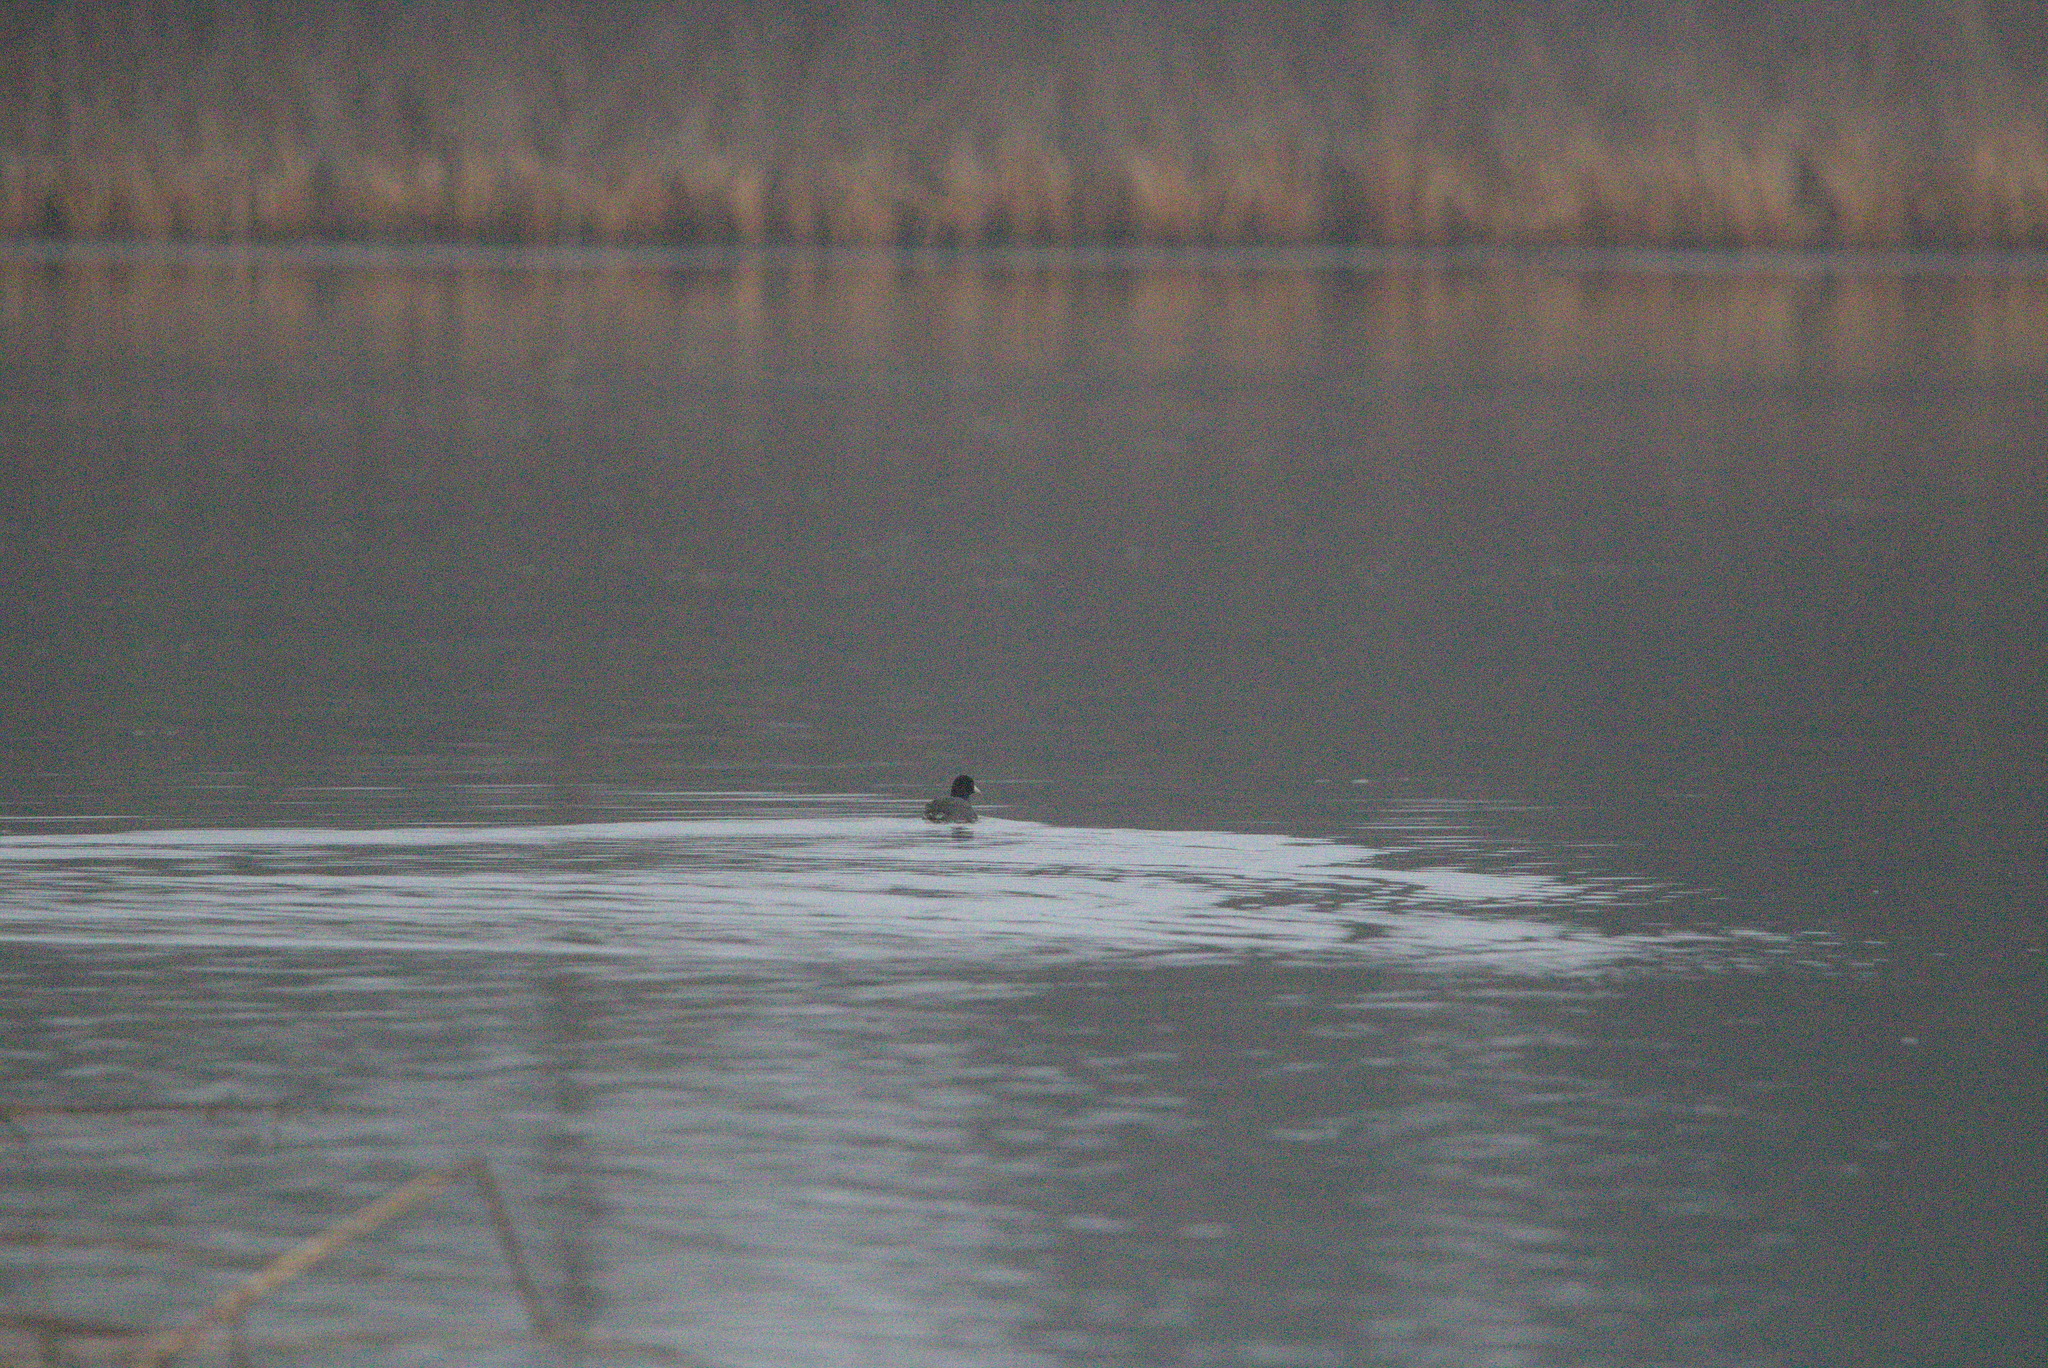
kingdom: Animalia
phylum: Chordata
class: Aves
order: Gruiformes
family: Rallidae
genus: Fulica
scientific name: Fulica americana
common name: American coot
